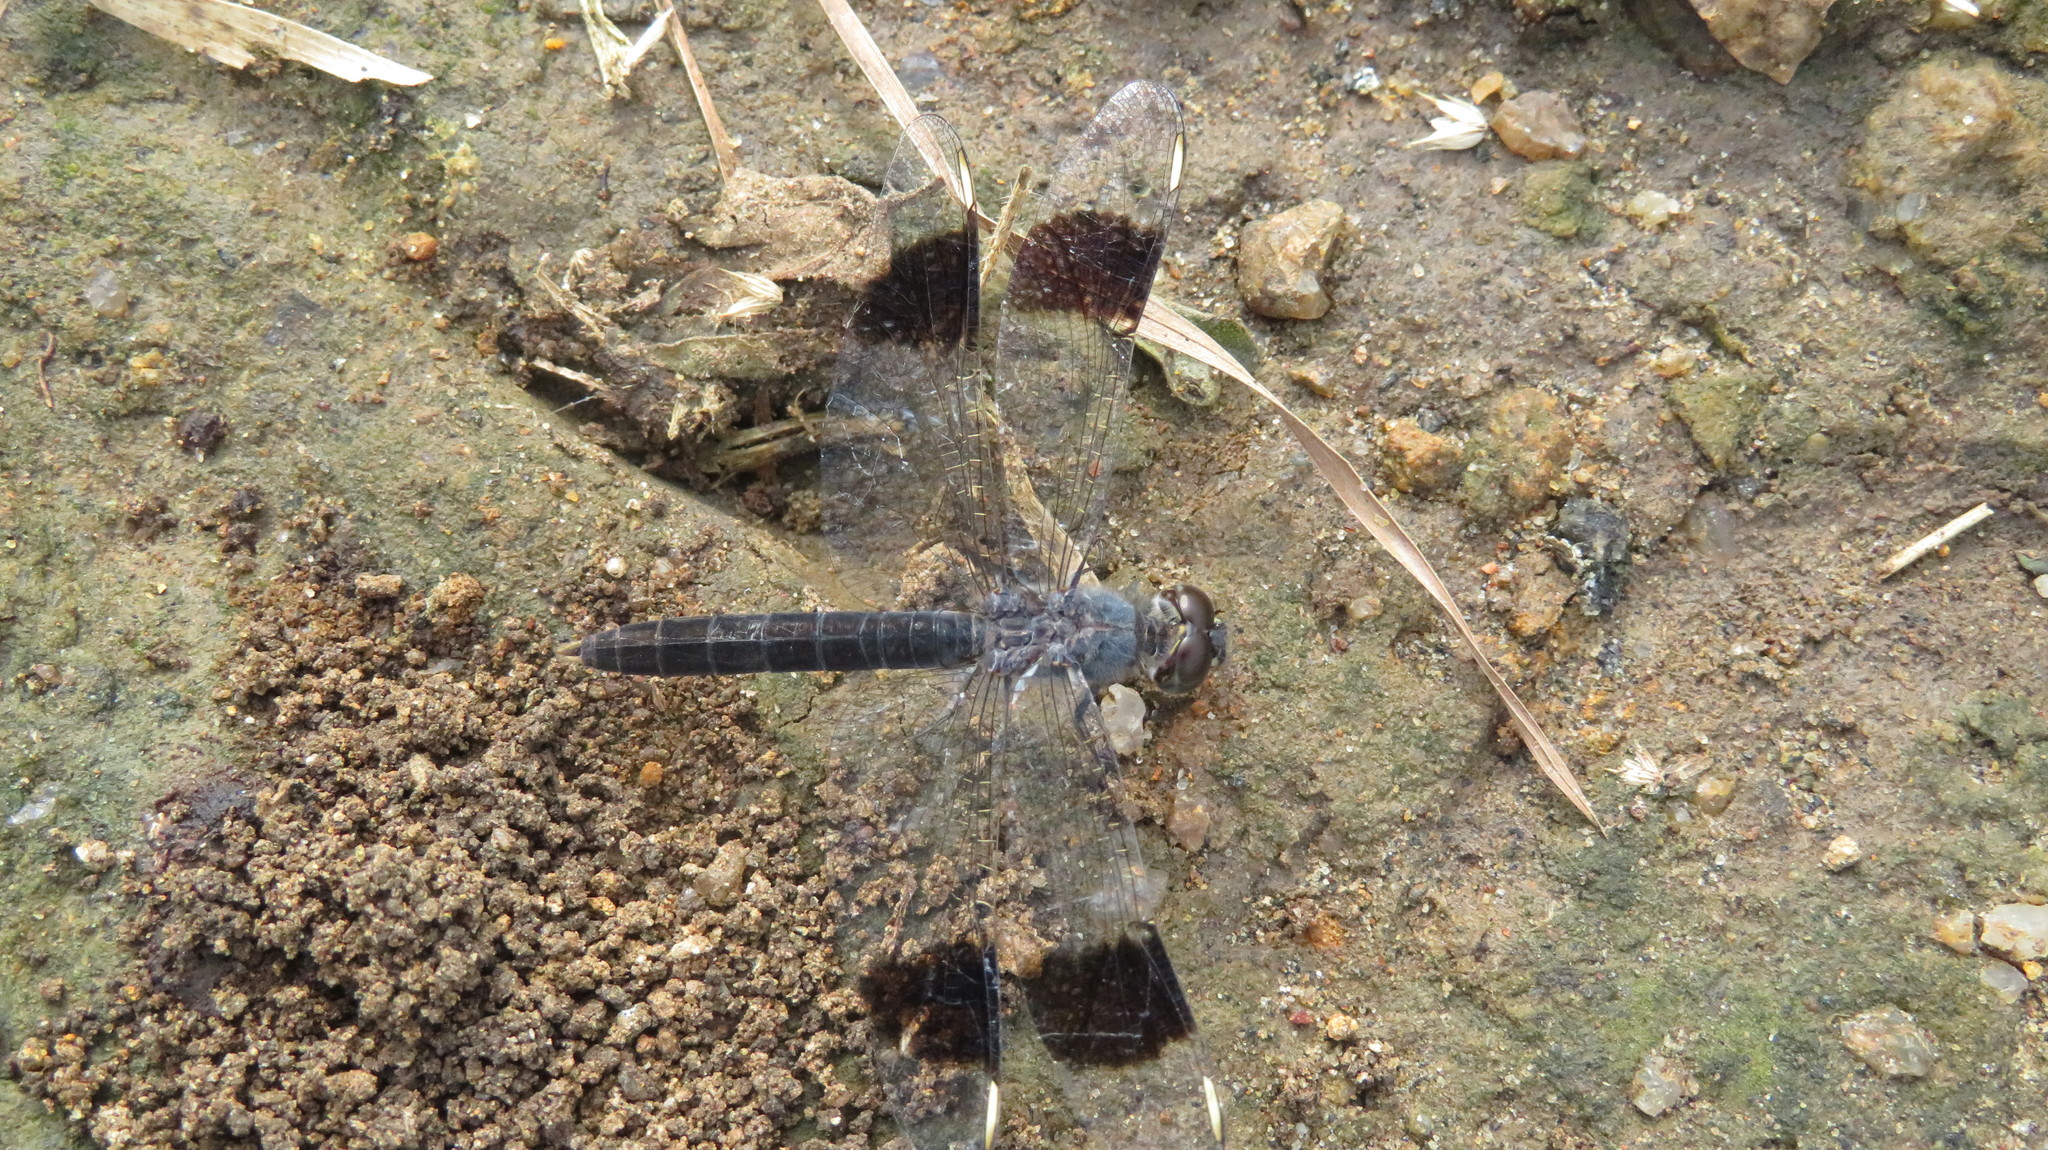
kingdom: Animalia
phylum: Arthropoda
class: Insecta
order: Odonata
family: Libellulidae
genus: Brachythemis
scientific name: Brachythemis leucosticta
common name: Banded groundling
